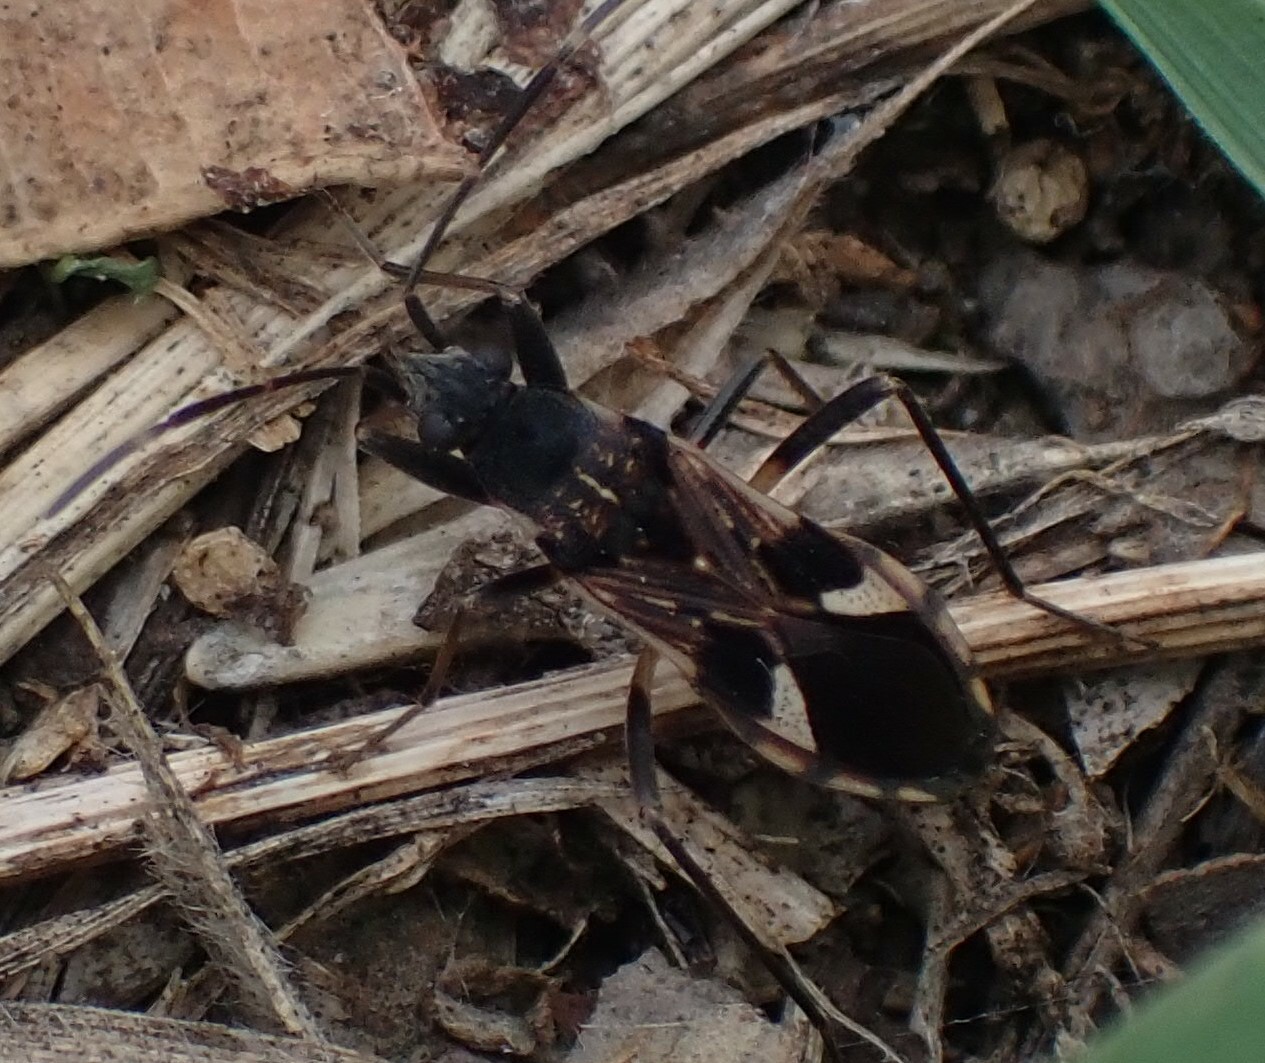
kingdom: Animalia
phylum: Arthropoda
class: Insecta
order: Hemiptera
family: Rhyparochromidae
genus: Dieuches
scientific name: Dieuches notatus
